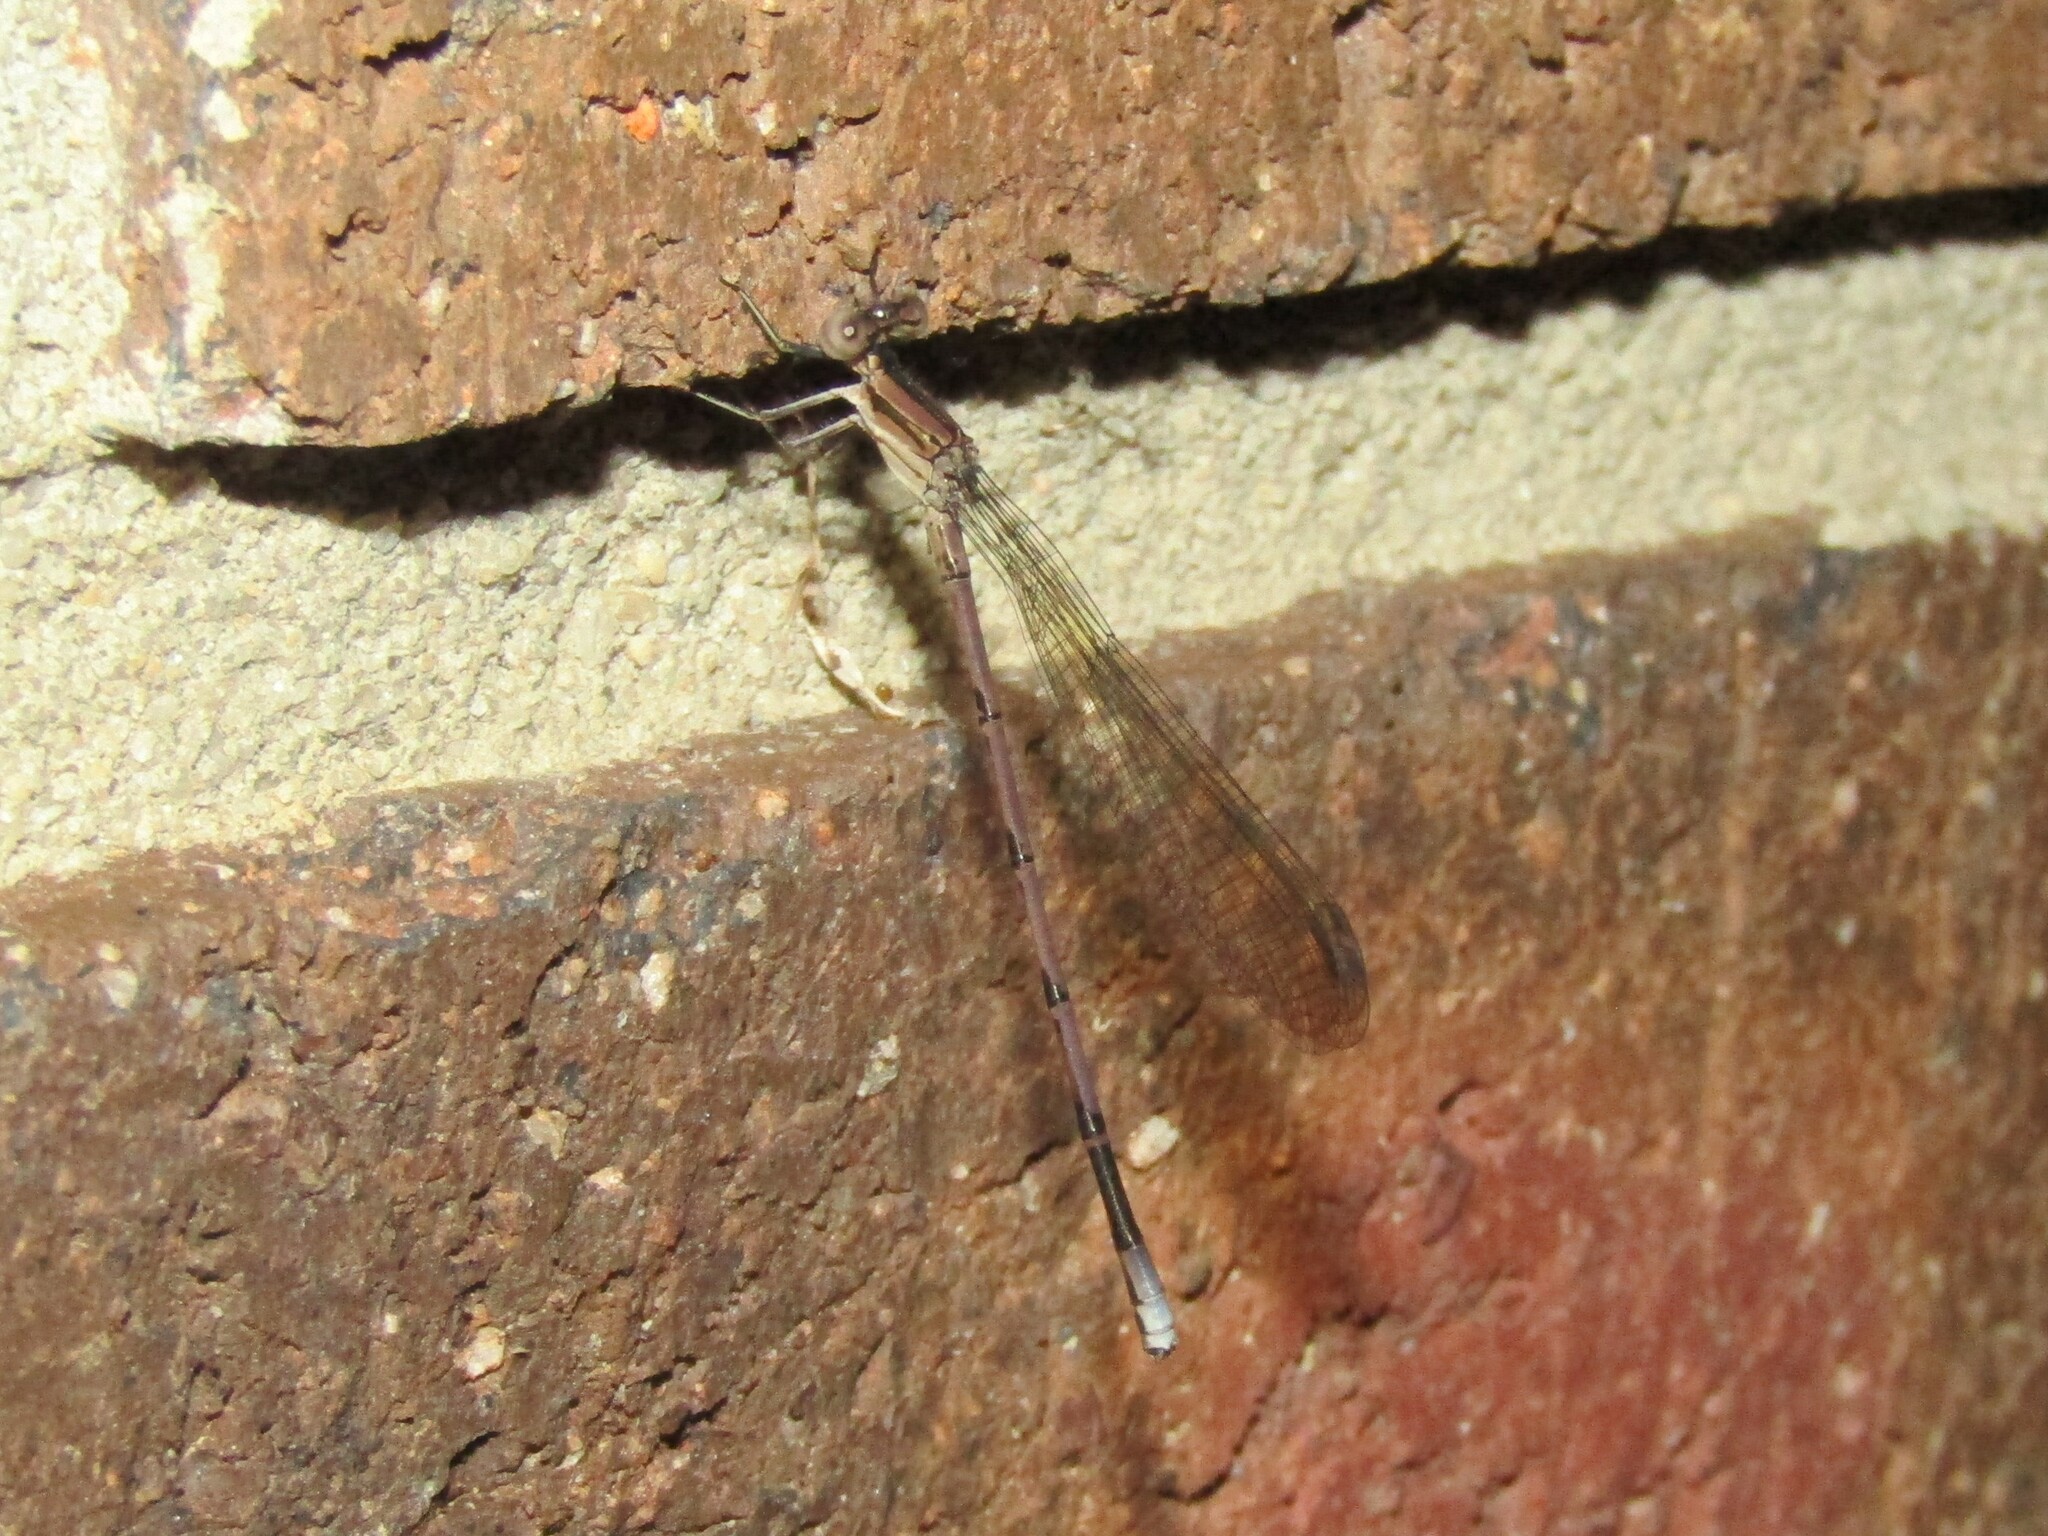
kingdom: Animalia
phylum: Arthropoda
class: Insecta
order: Odonata
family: Coenagrionidae
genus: Argia
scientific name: Argia fumipennis
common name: Variable dancer
